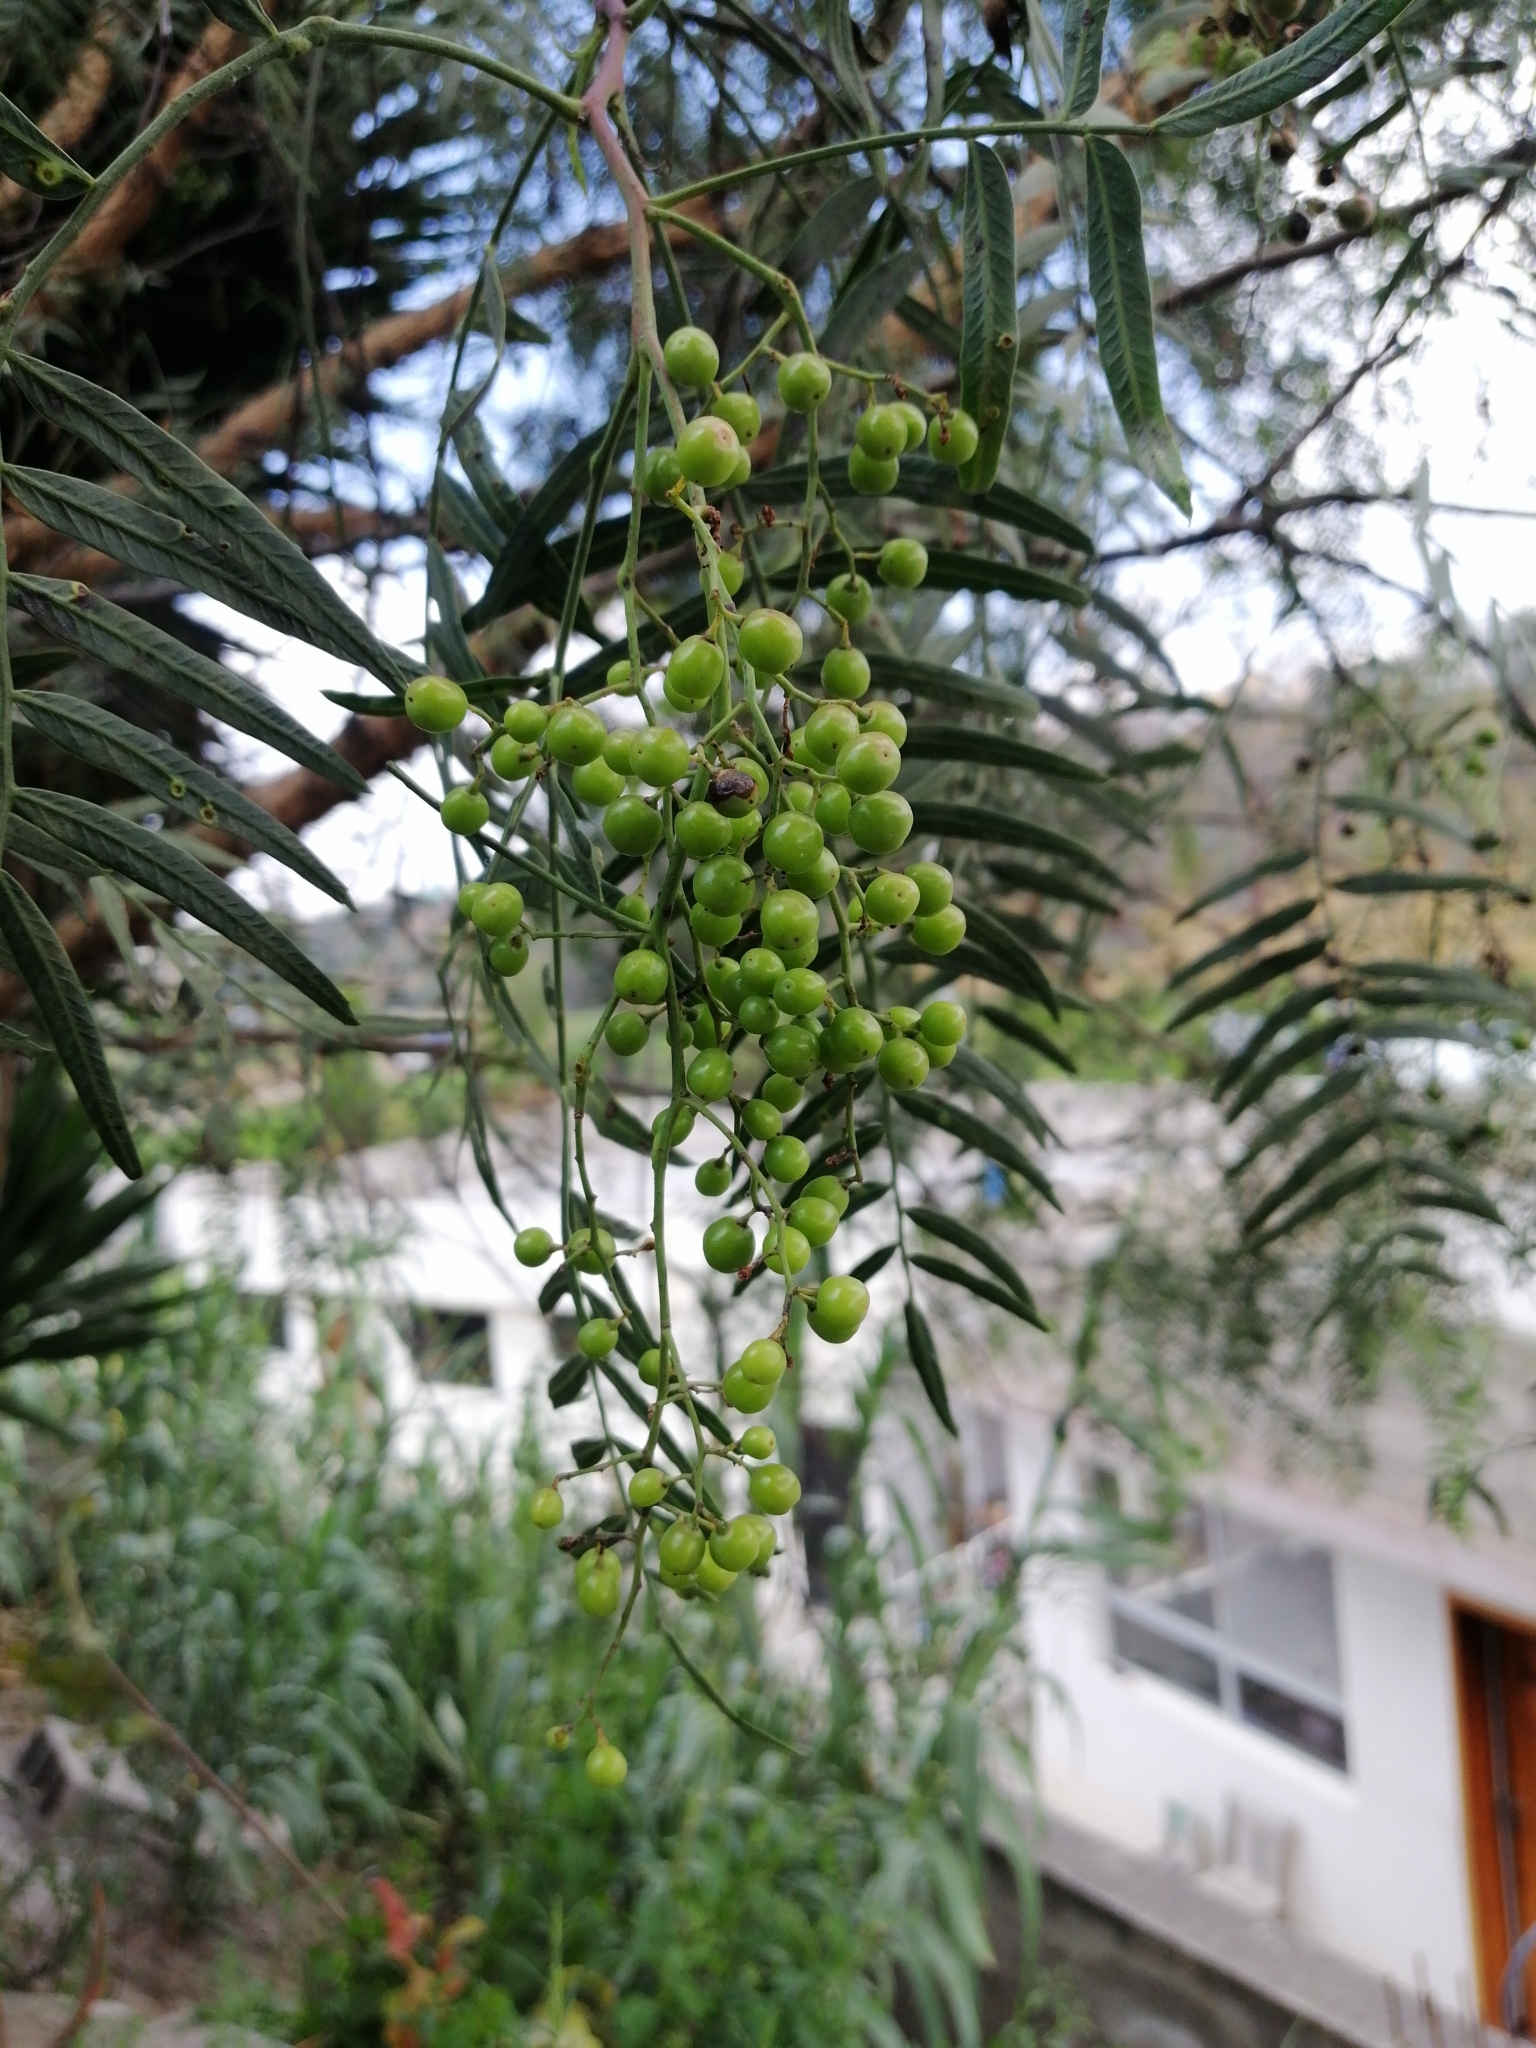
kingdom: Plantae
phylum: Tracheophyta
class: Magnoliopsida
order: Sapindales
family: Anacardiaceae
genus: Schinus
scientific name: Schinus molle
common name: Peruvian peppertree
